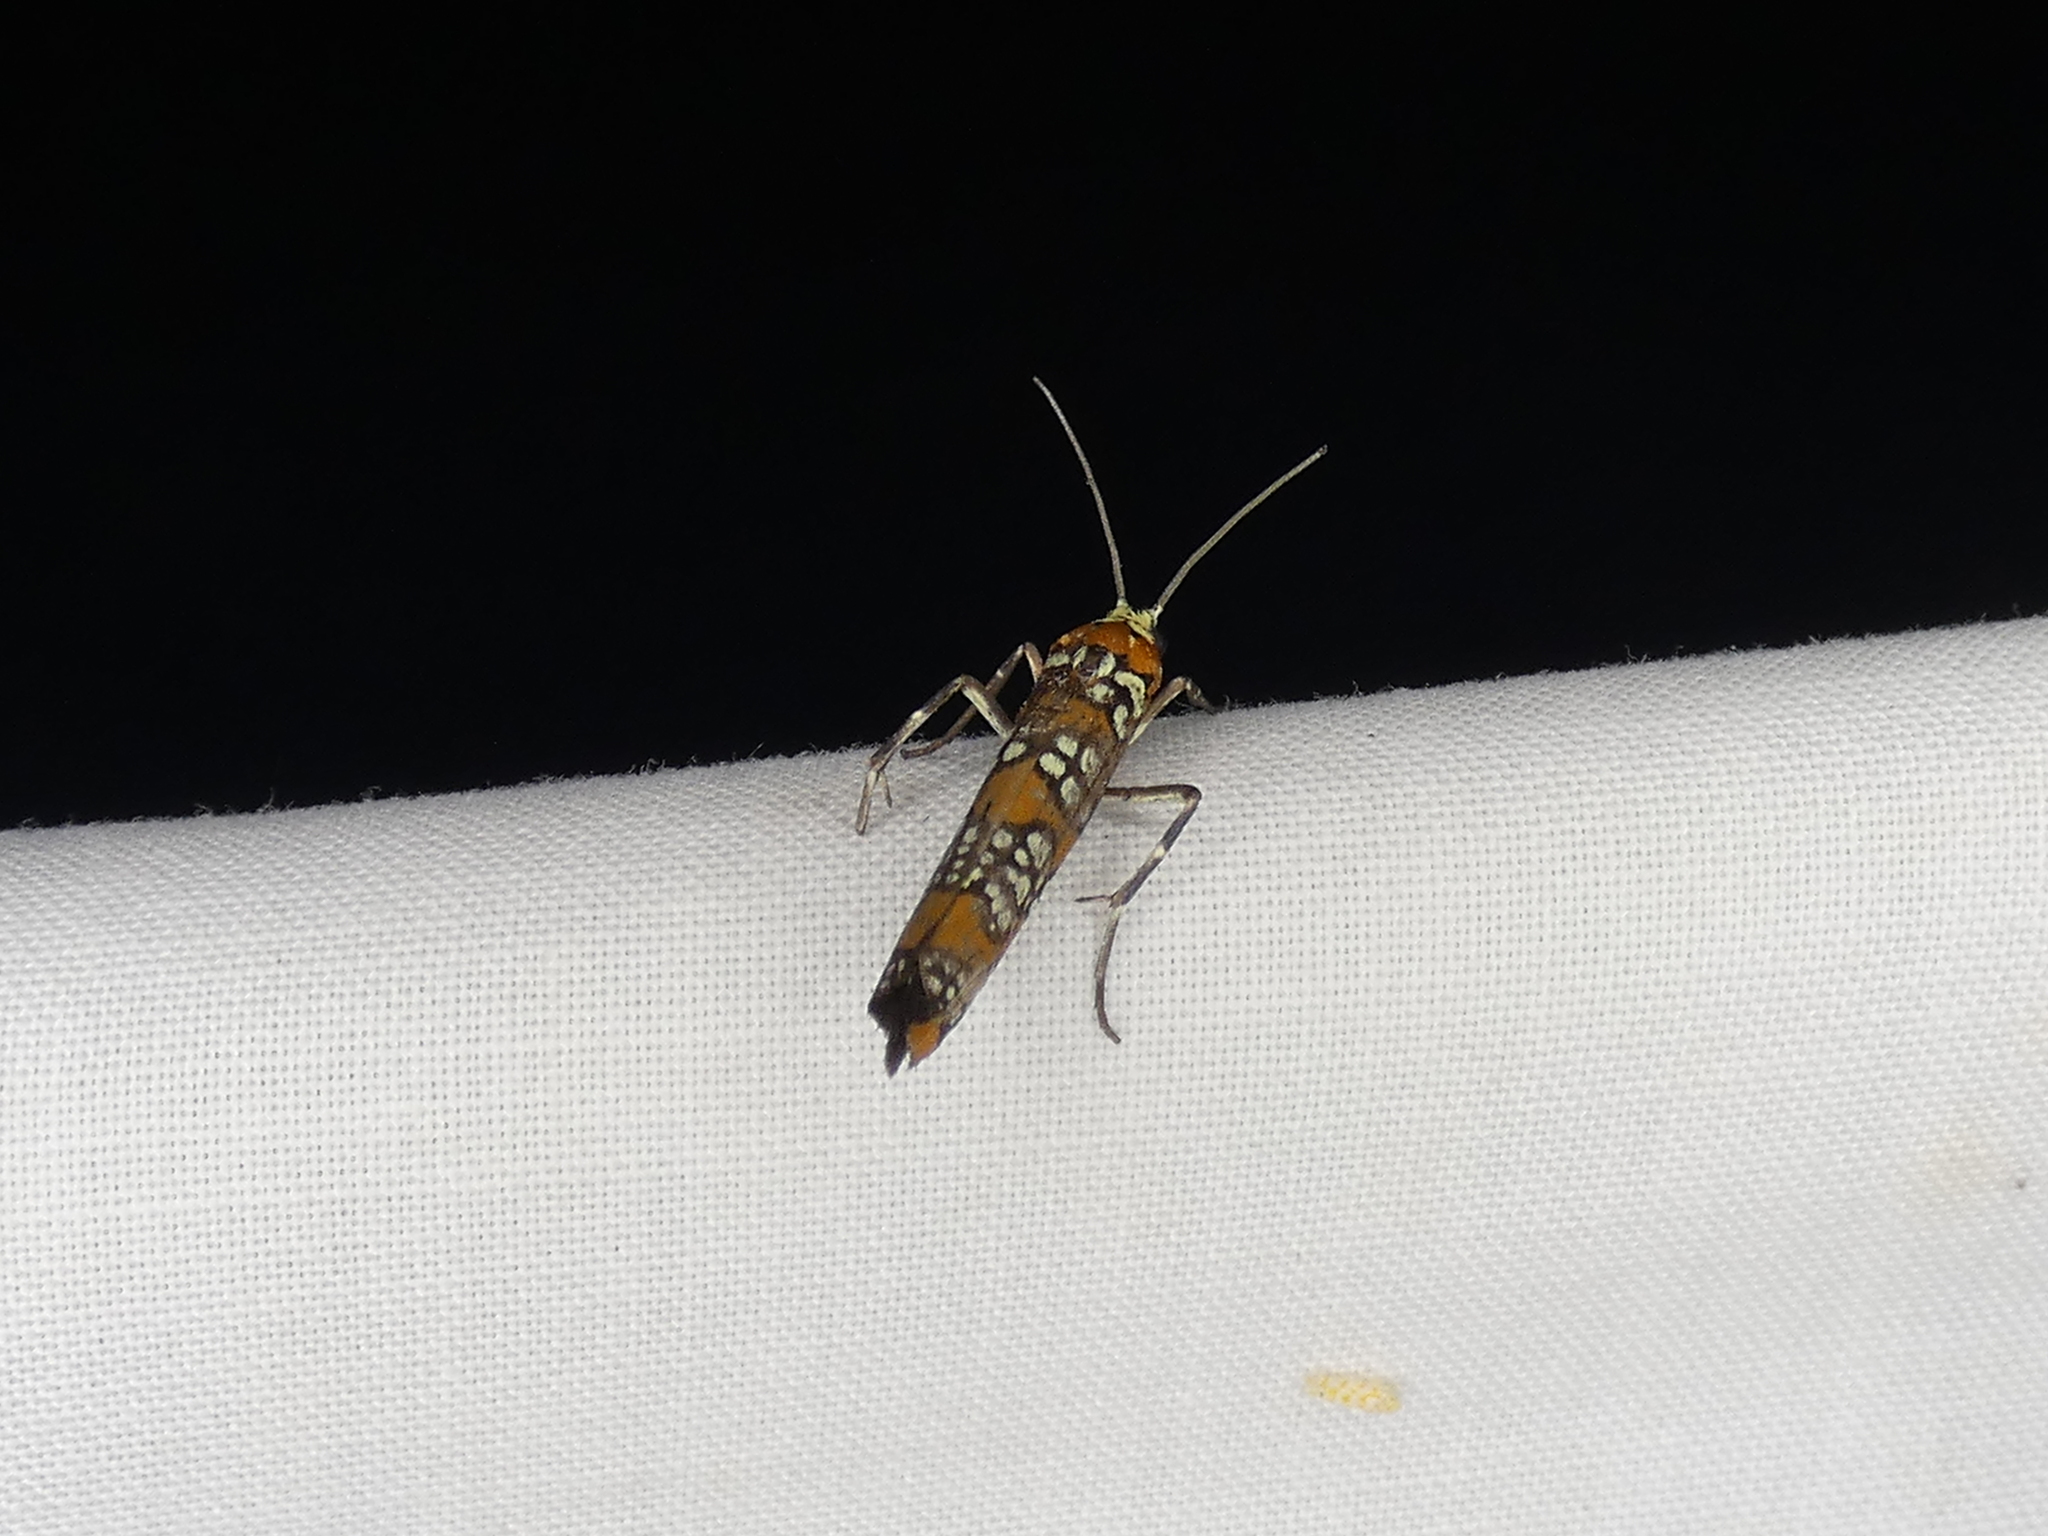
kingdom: Animalia
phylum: Arthropoda
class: Insecta
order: Lepidoptera
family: Attevidae
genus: Atteva
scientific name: Atteva punctella
